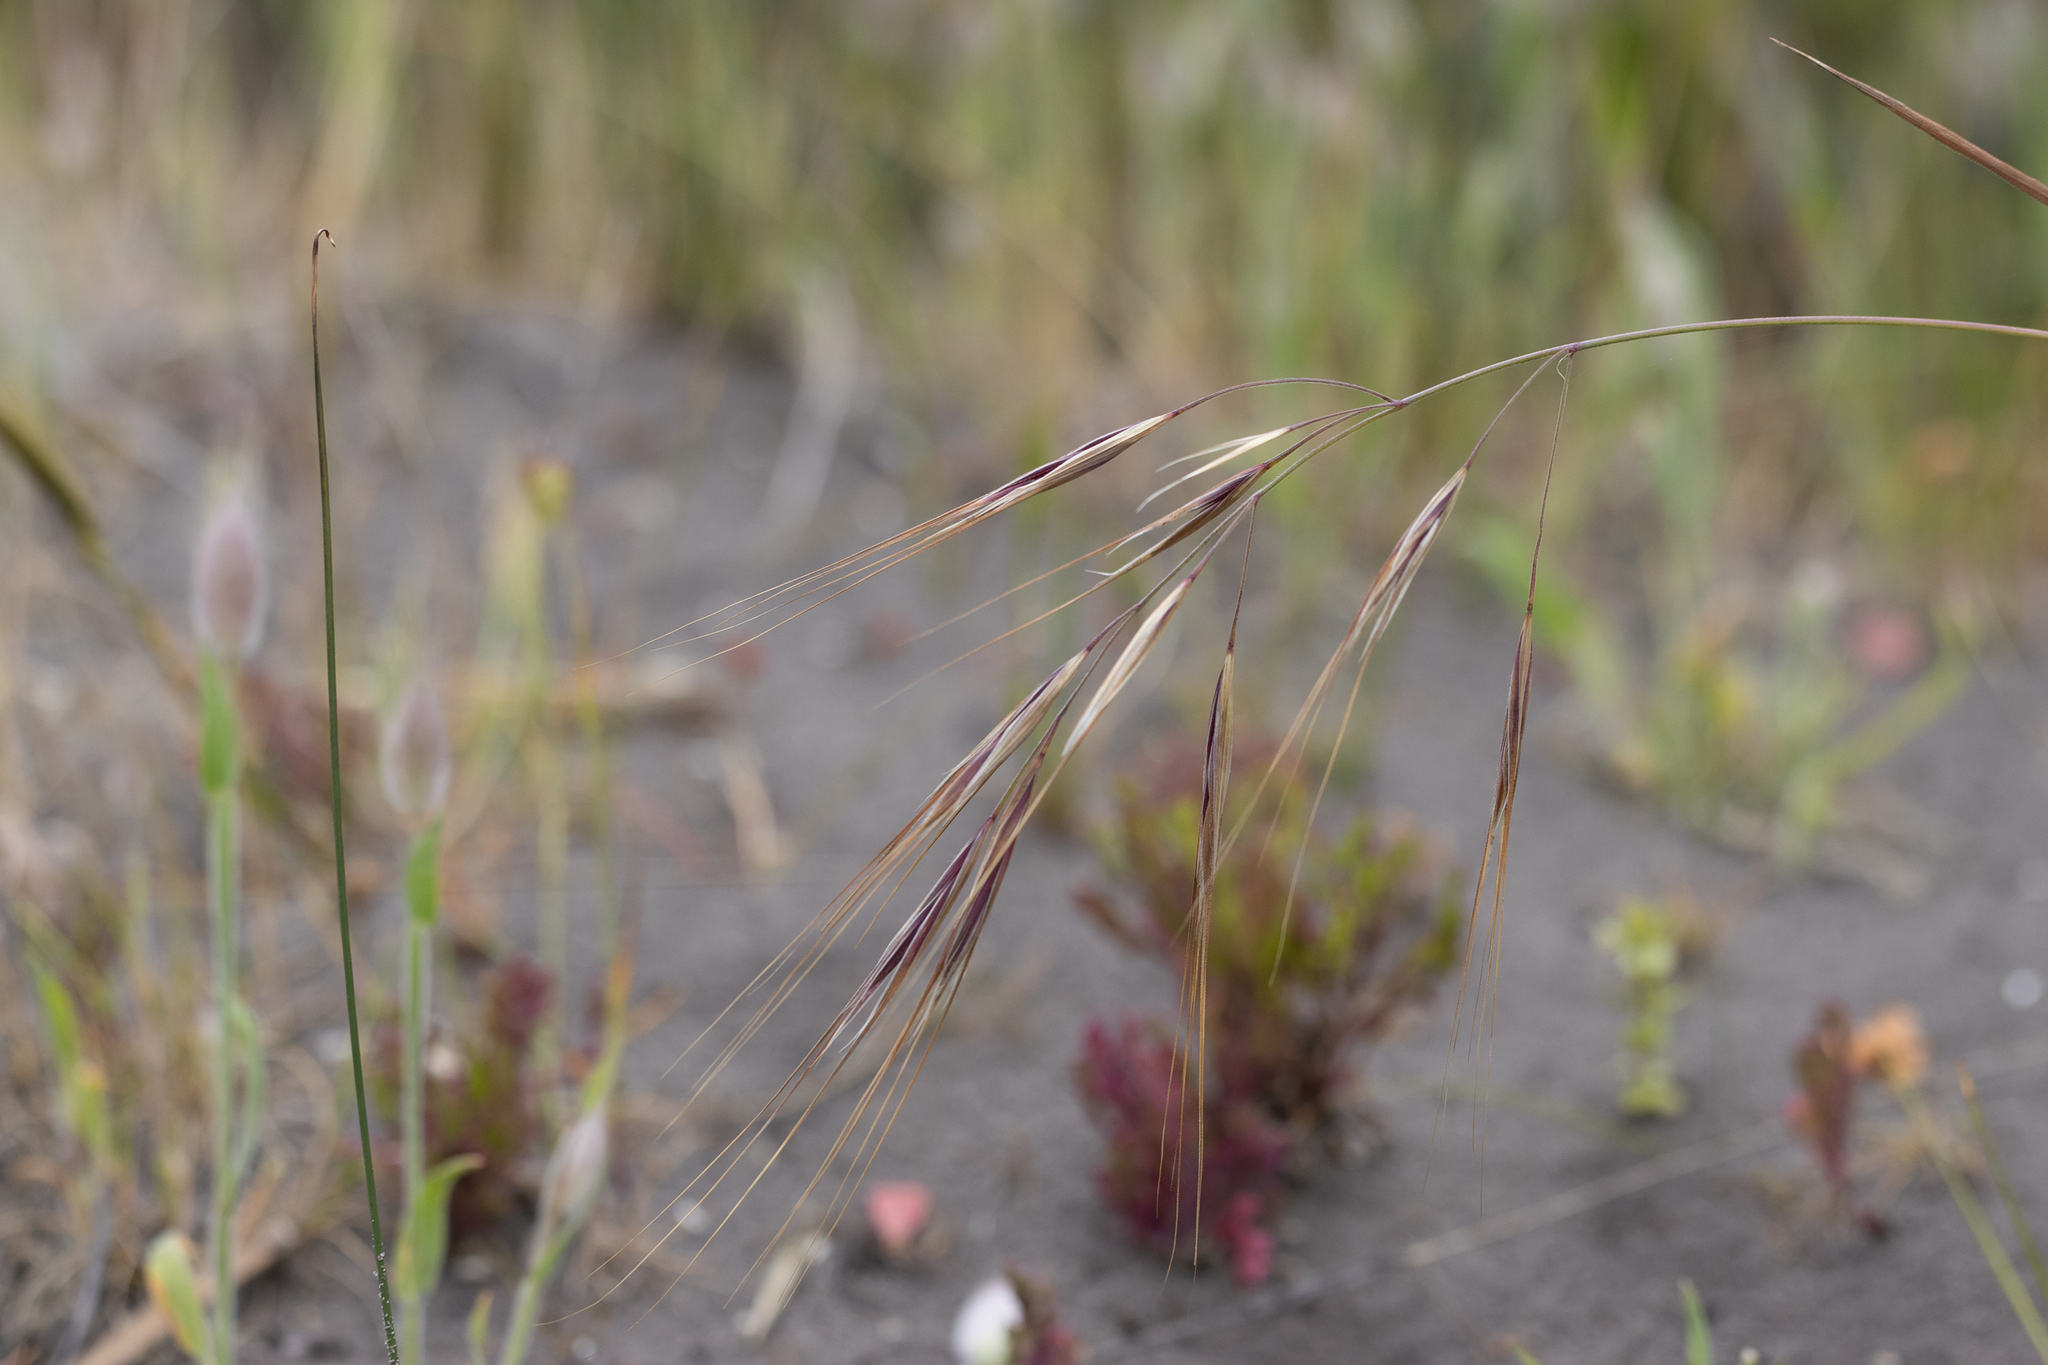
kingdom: Plantae
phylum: Tracheophyta
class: Liliopsida
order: Poales
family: Poaceae
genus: Bromus
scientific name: Bromus diandrus
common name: Ripgut brome
